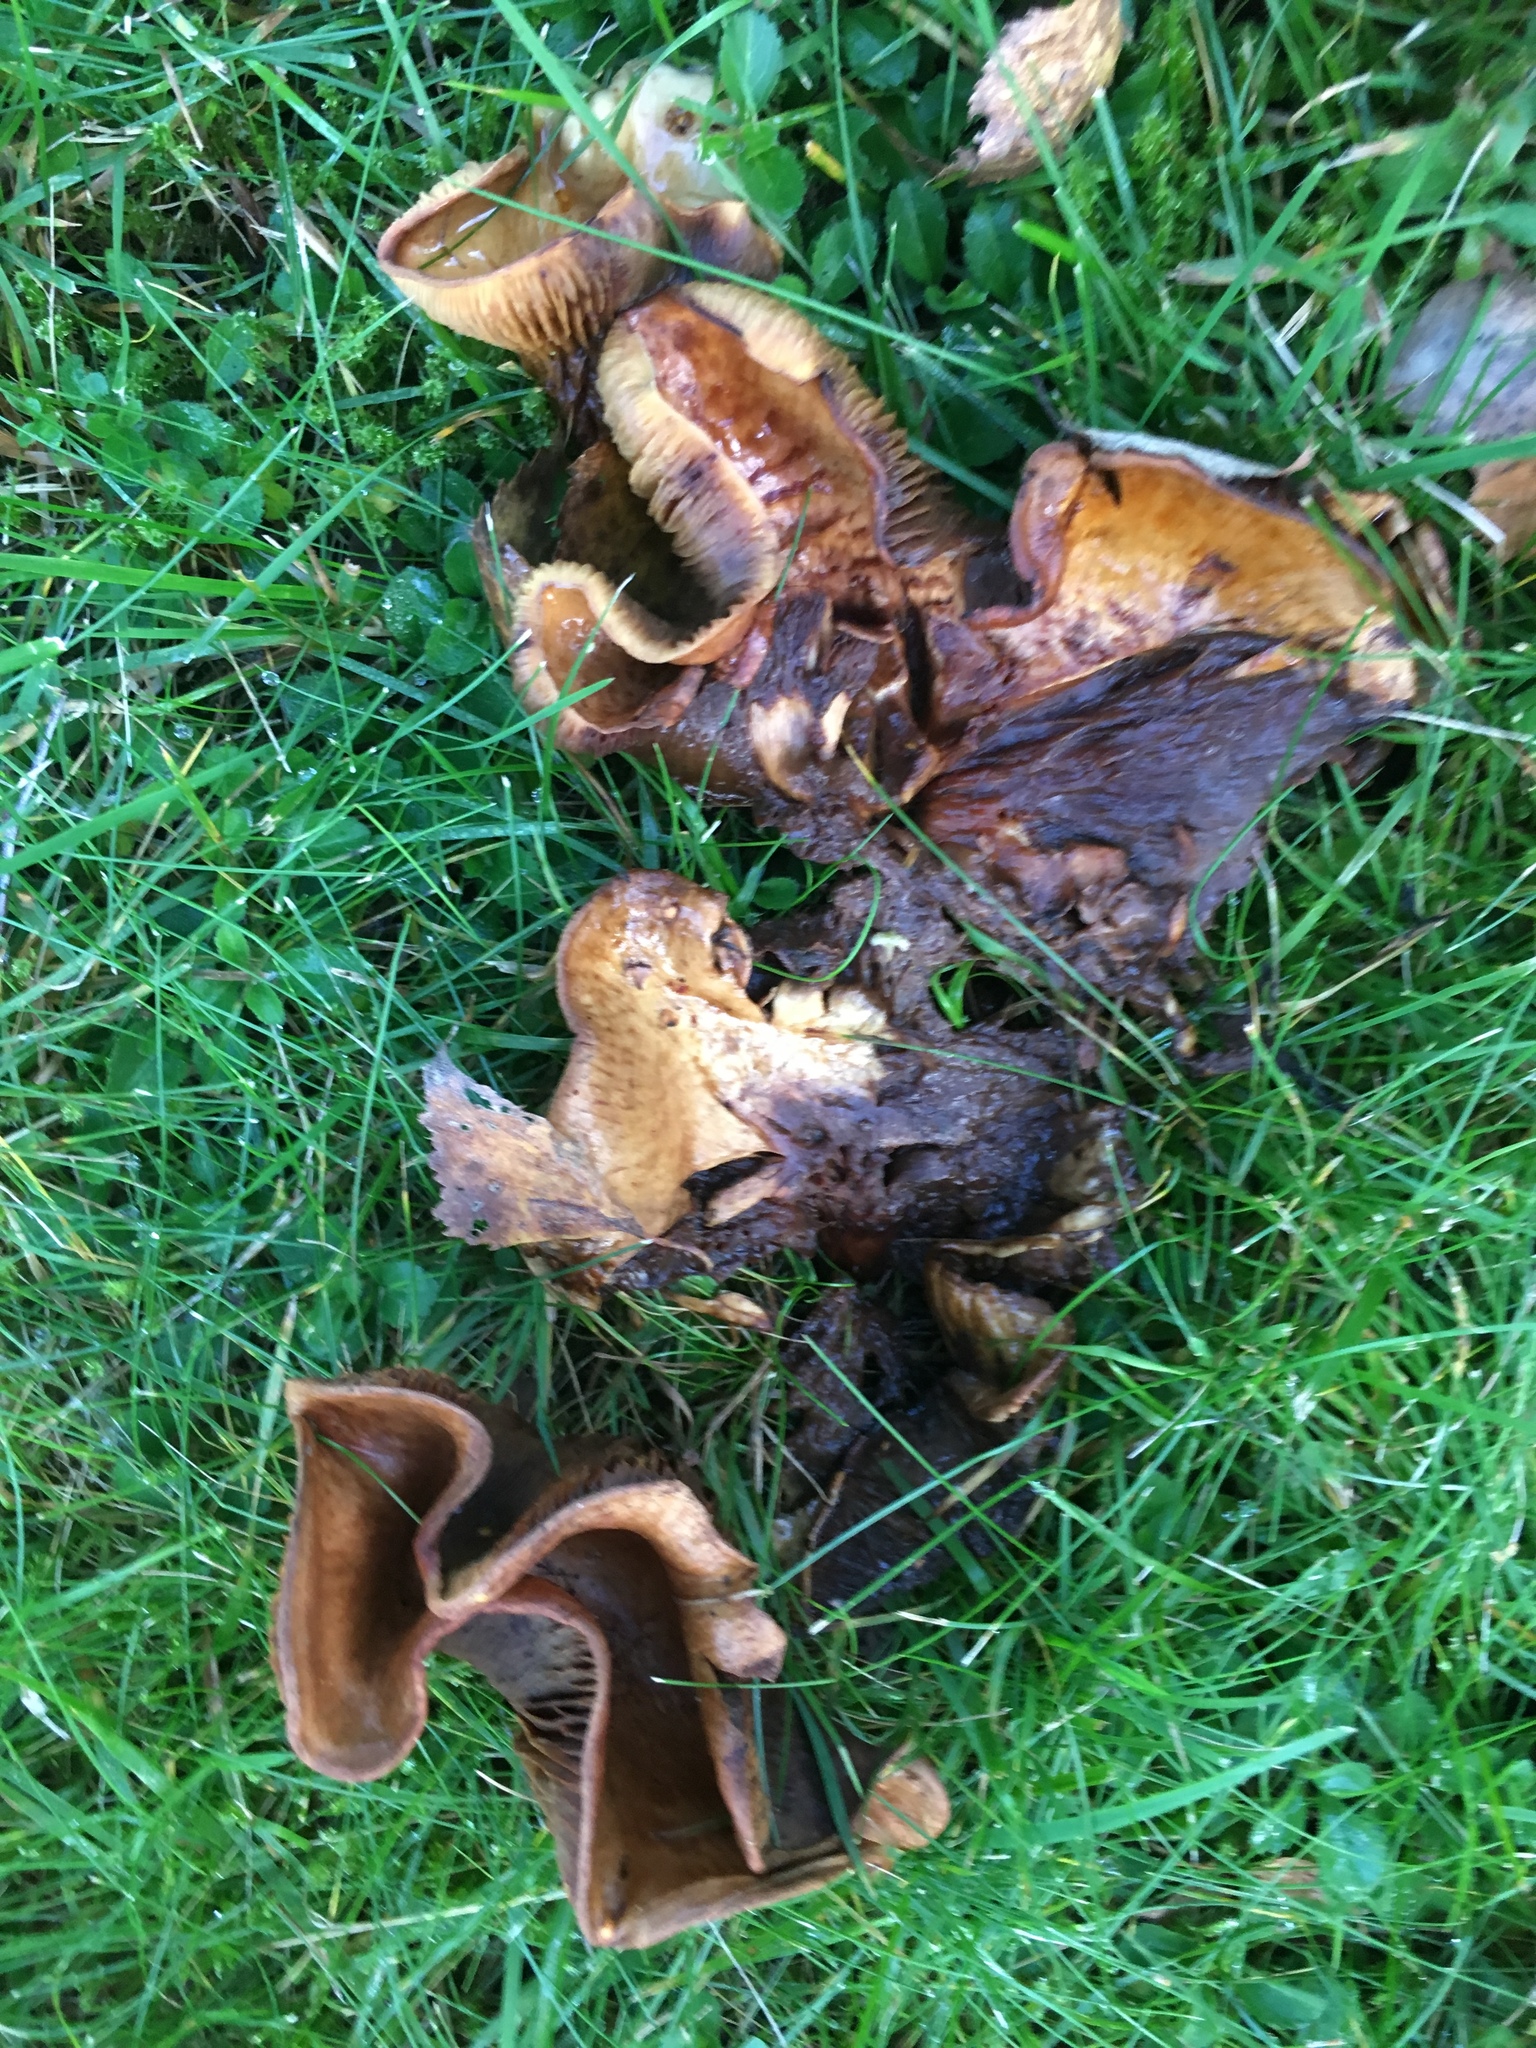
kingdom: Fungi
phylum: Basidiomycota
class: Agaricomycetes
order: Boletales
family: Paxillaceae
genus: Paxillus
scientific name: Paxillus involutus
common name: Brown roll rim
